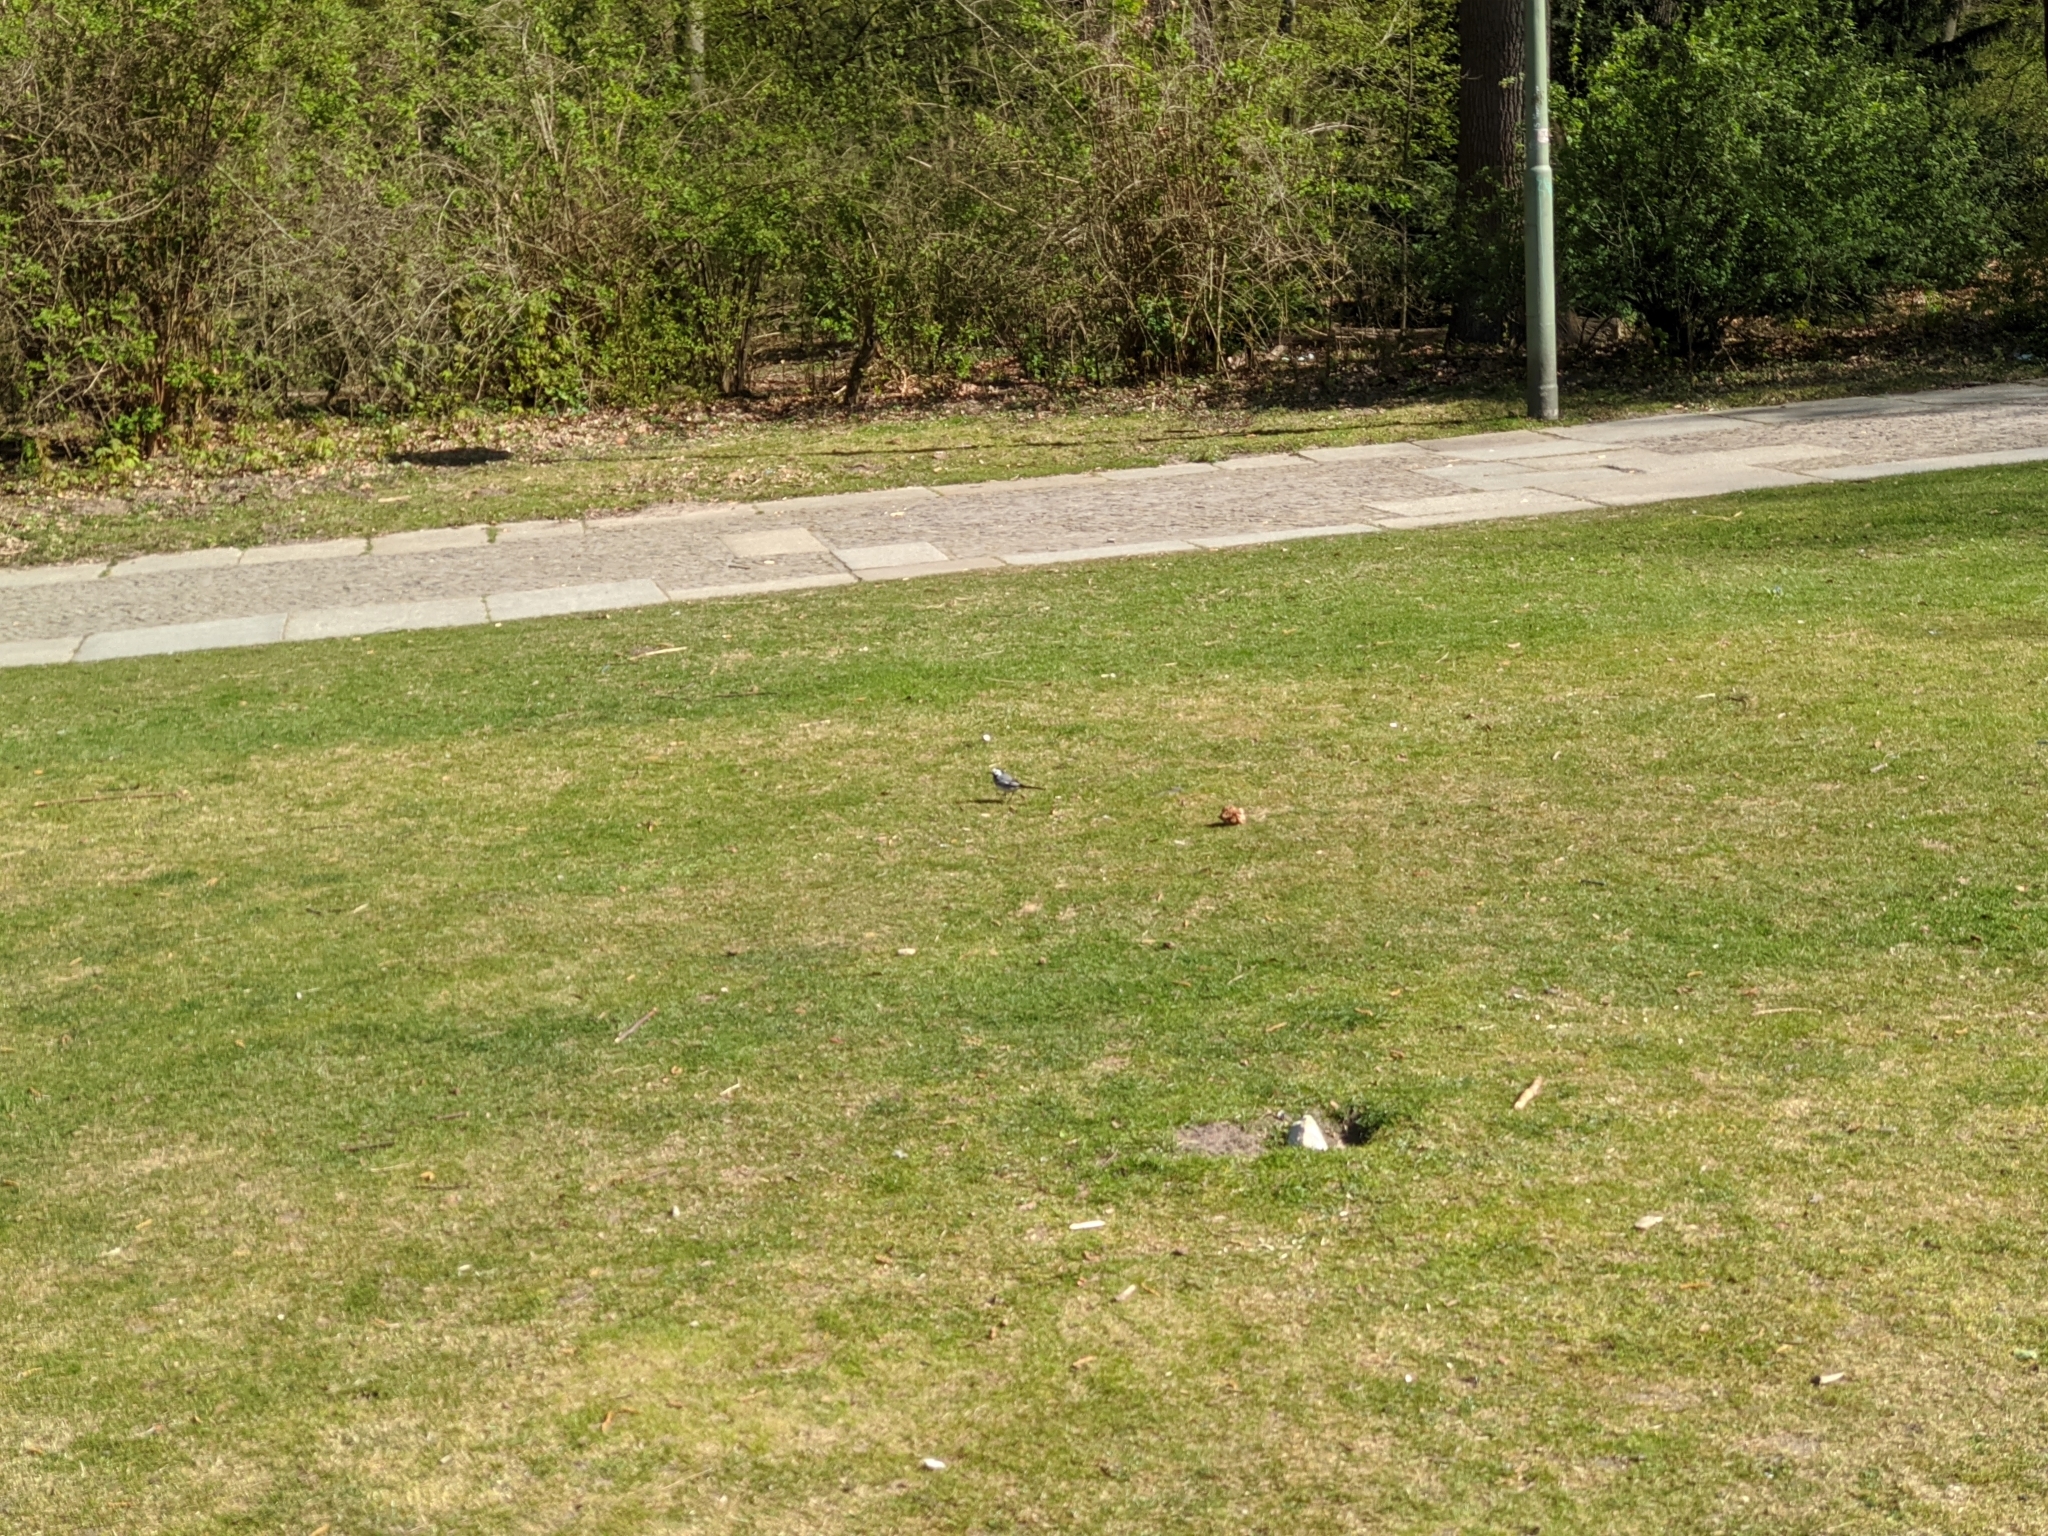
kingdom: Animalia
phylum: Chordata
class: Aves
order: Passeriformes
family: Motacillidae
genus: Motacilla
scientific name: Motacilla alba
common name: White wagtail
